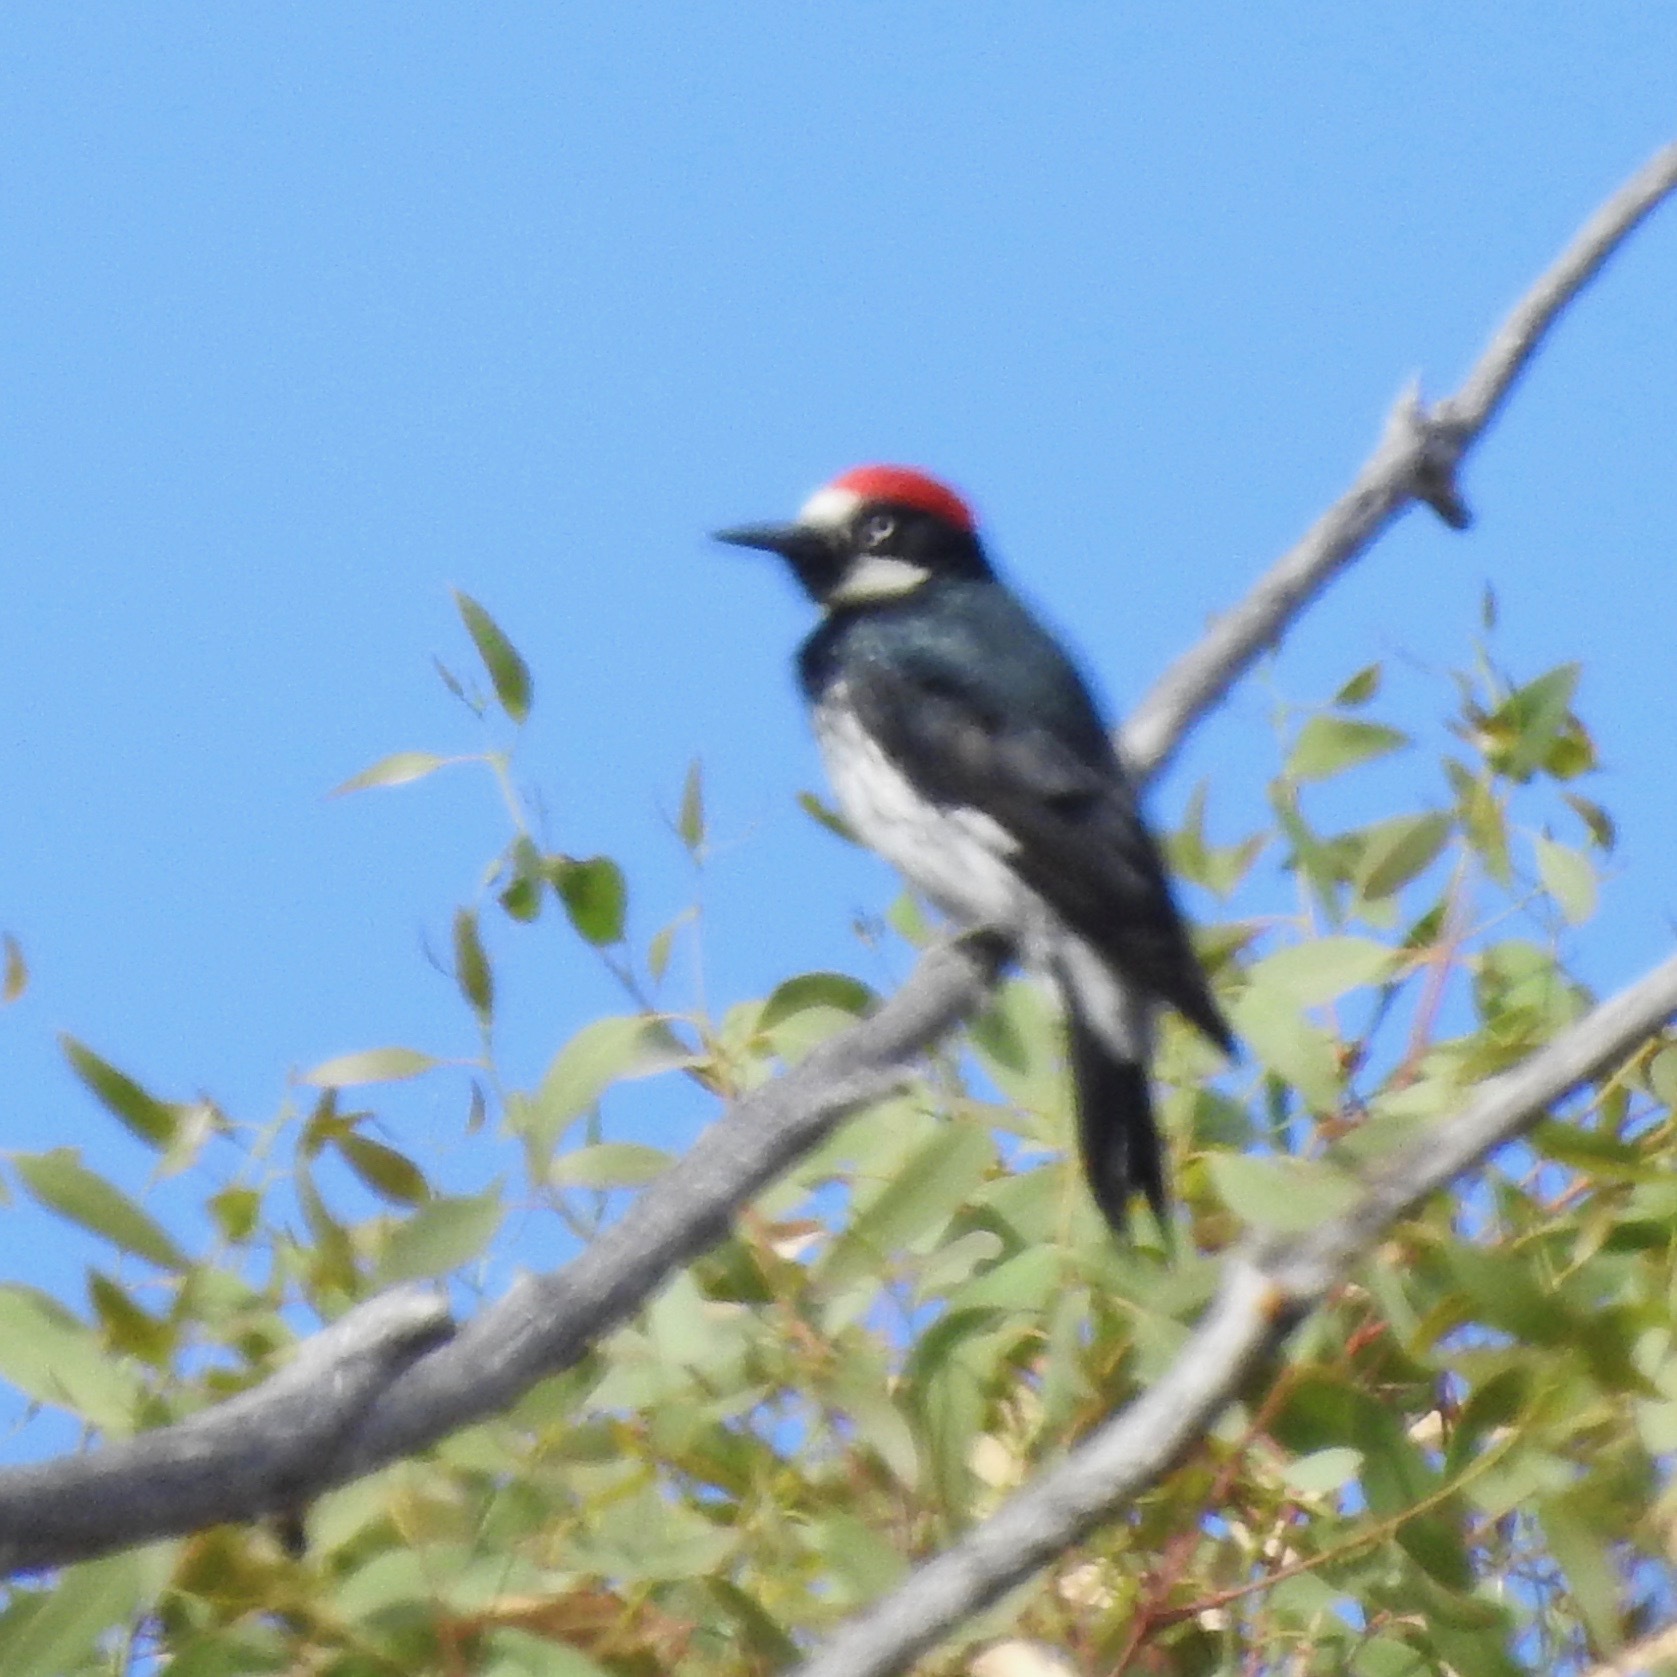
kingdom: Animalia
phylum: Chordata
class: Aves
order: Piciformes
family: Picidae
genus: Melanerpes
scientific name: Melanerpes formicivorus
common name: Acorn woodpecker
